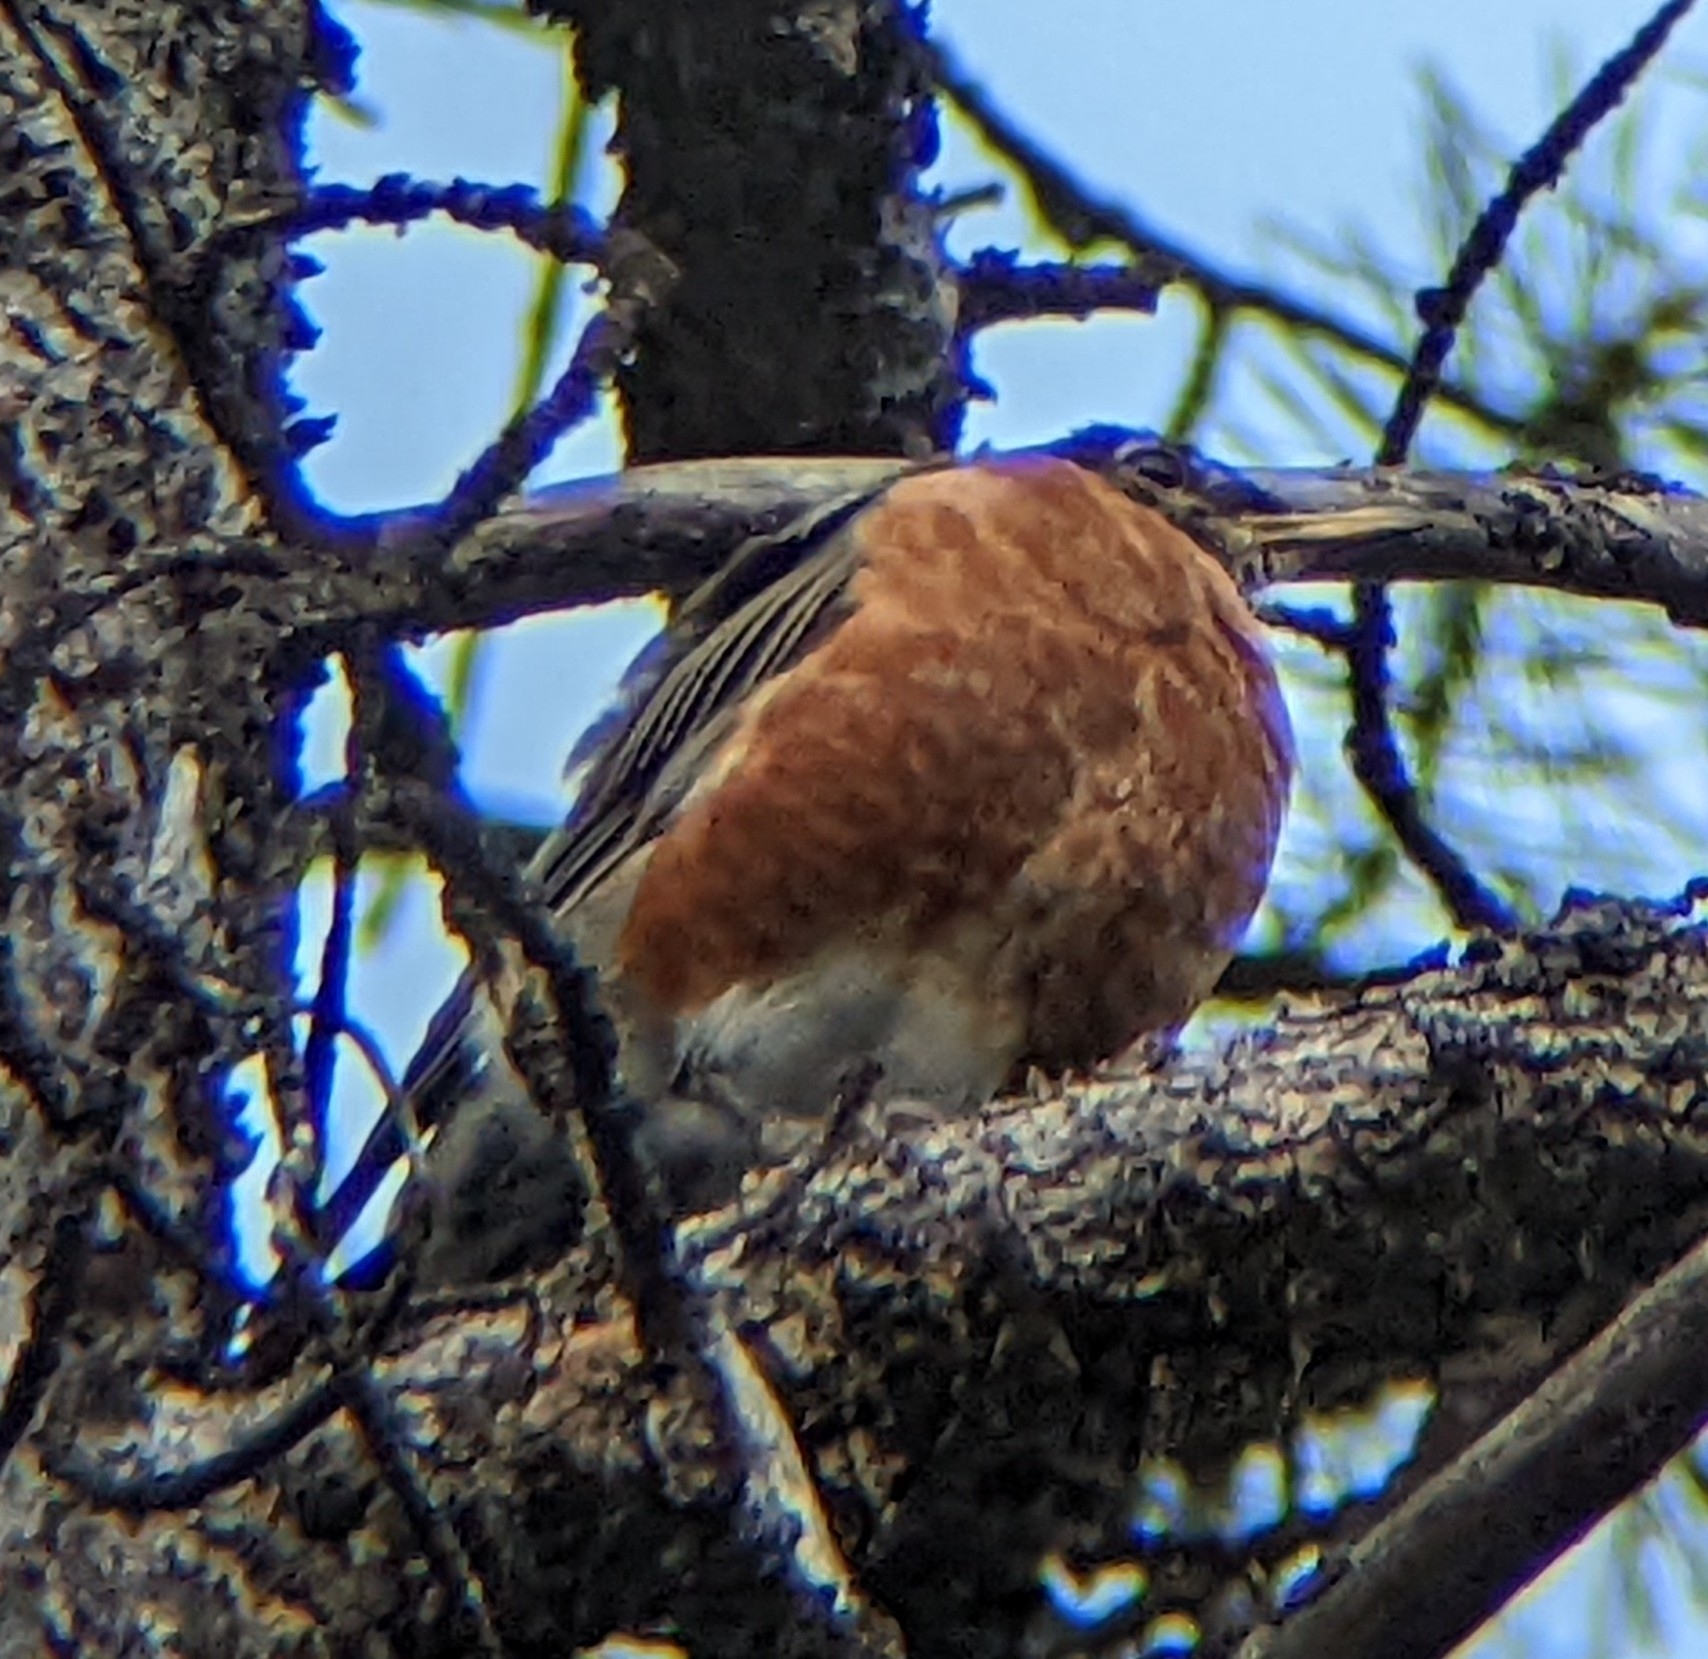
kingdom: Animalia
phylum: Chordata
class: Aves
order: Passeriformes
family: Turdidae
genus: Turdus
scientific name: Turdus migratorius
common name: American robin
